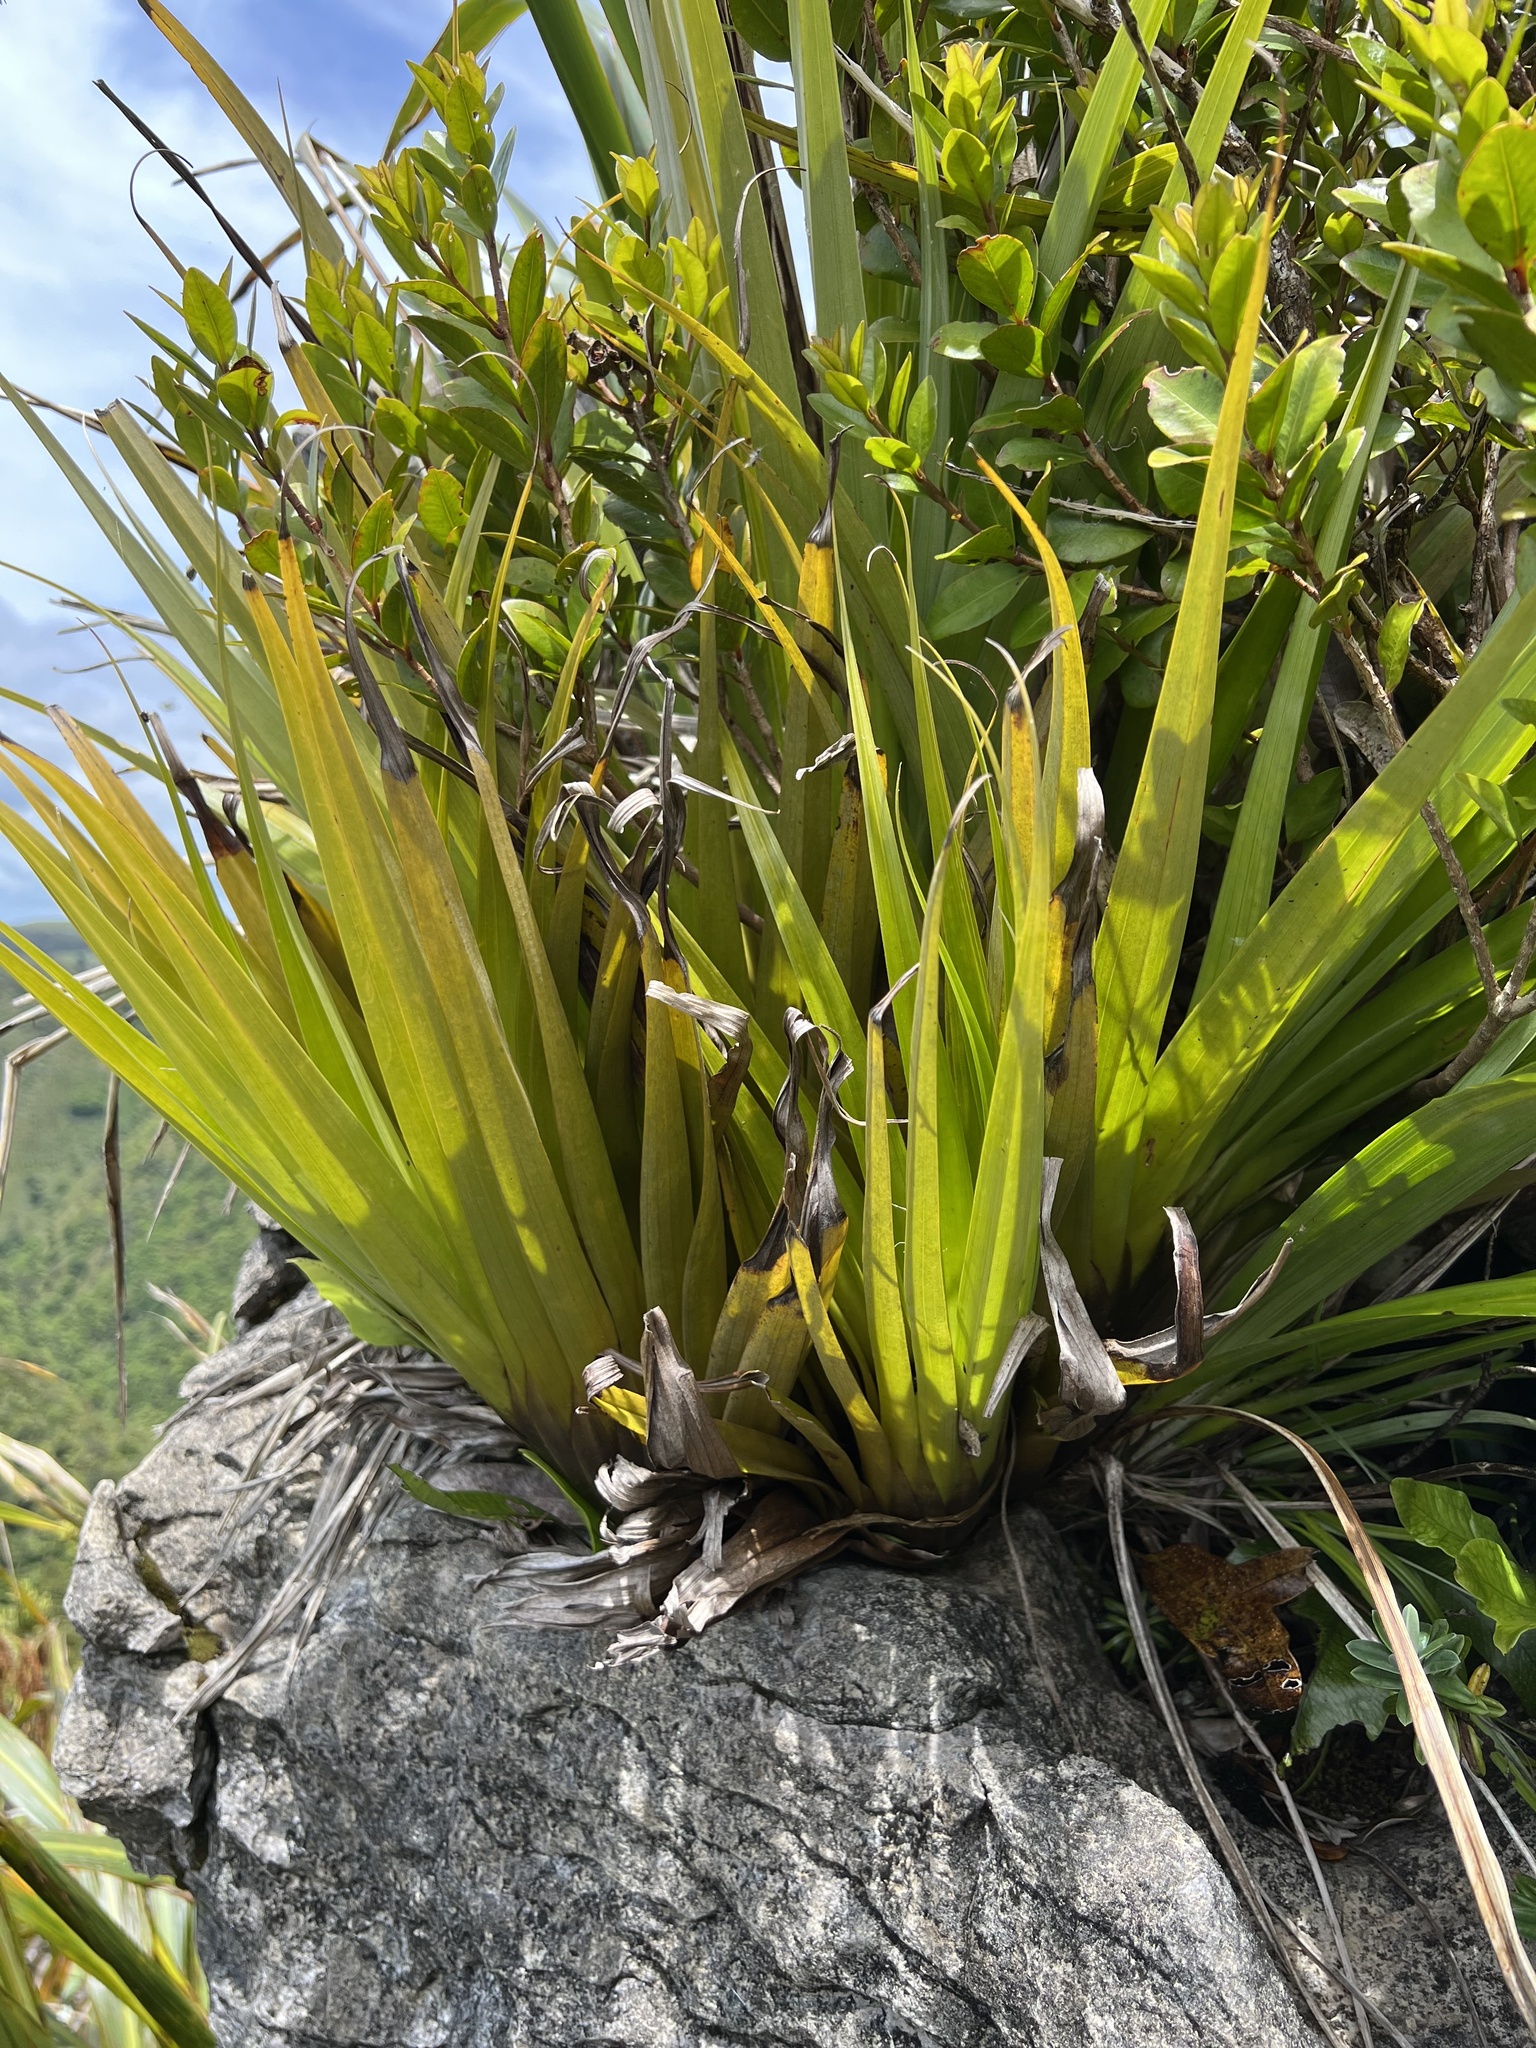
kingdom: Plantae
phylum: Tracheophyta
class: Liliopsida
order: Asparagales
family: Asteliaceae
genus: Astelia
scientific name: Astelia hastata
